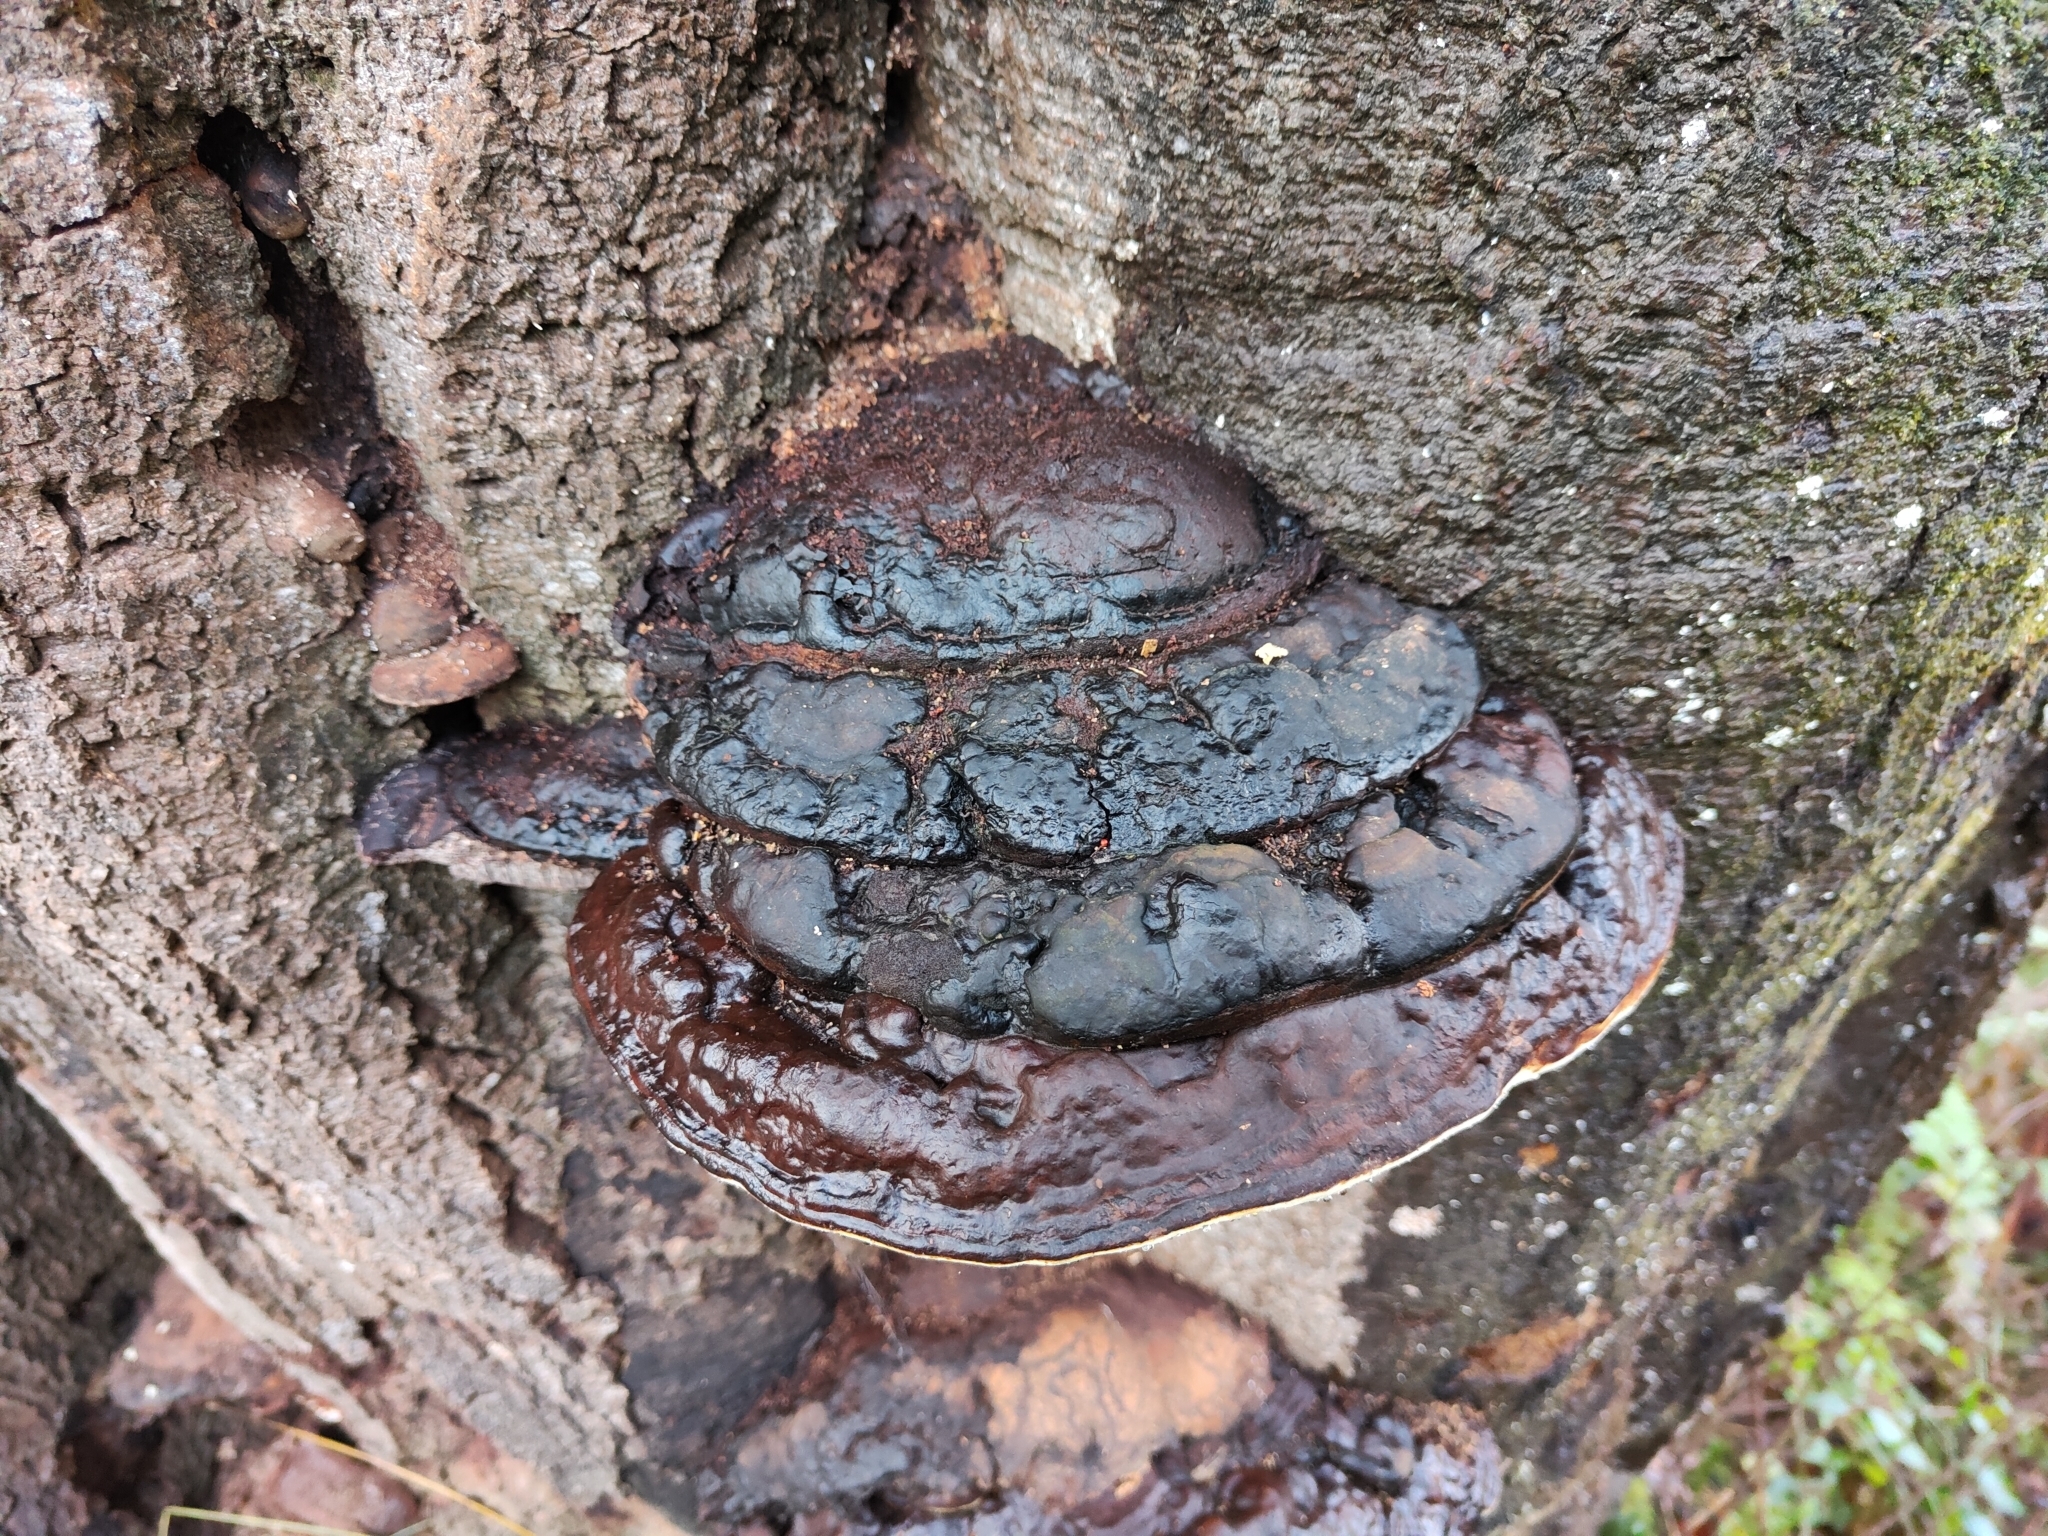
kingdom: Fungi
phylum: Basidiomycota
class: Agaricomycetes
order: Polyporales
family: Fomitopsidaceae
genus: Fomitopsis
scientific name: Fomitopsis pinicola
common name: Red-belted bracket
